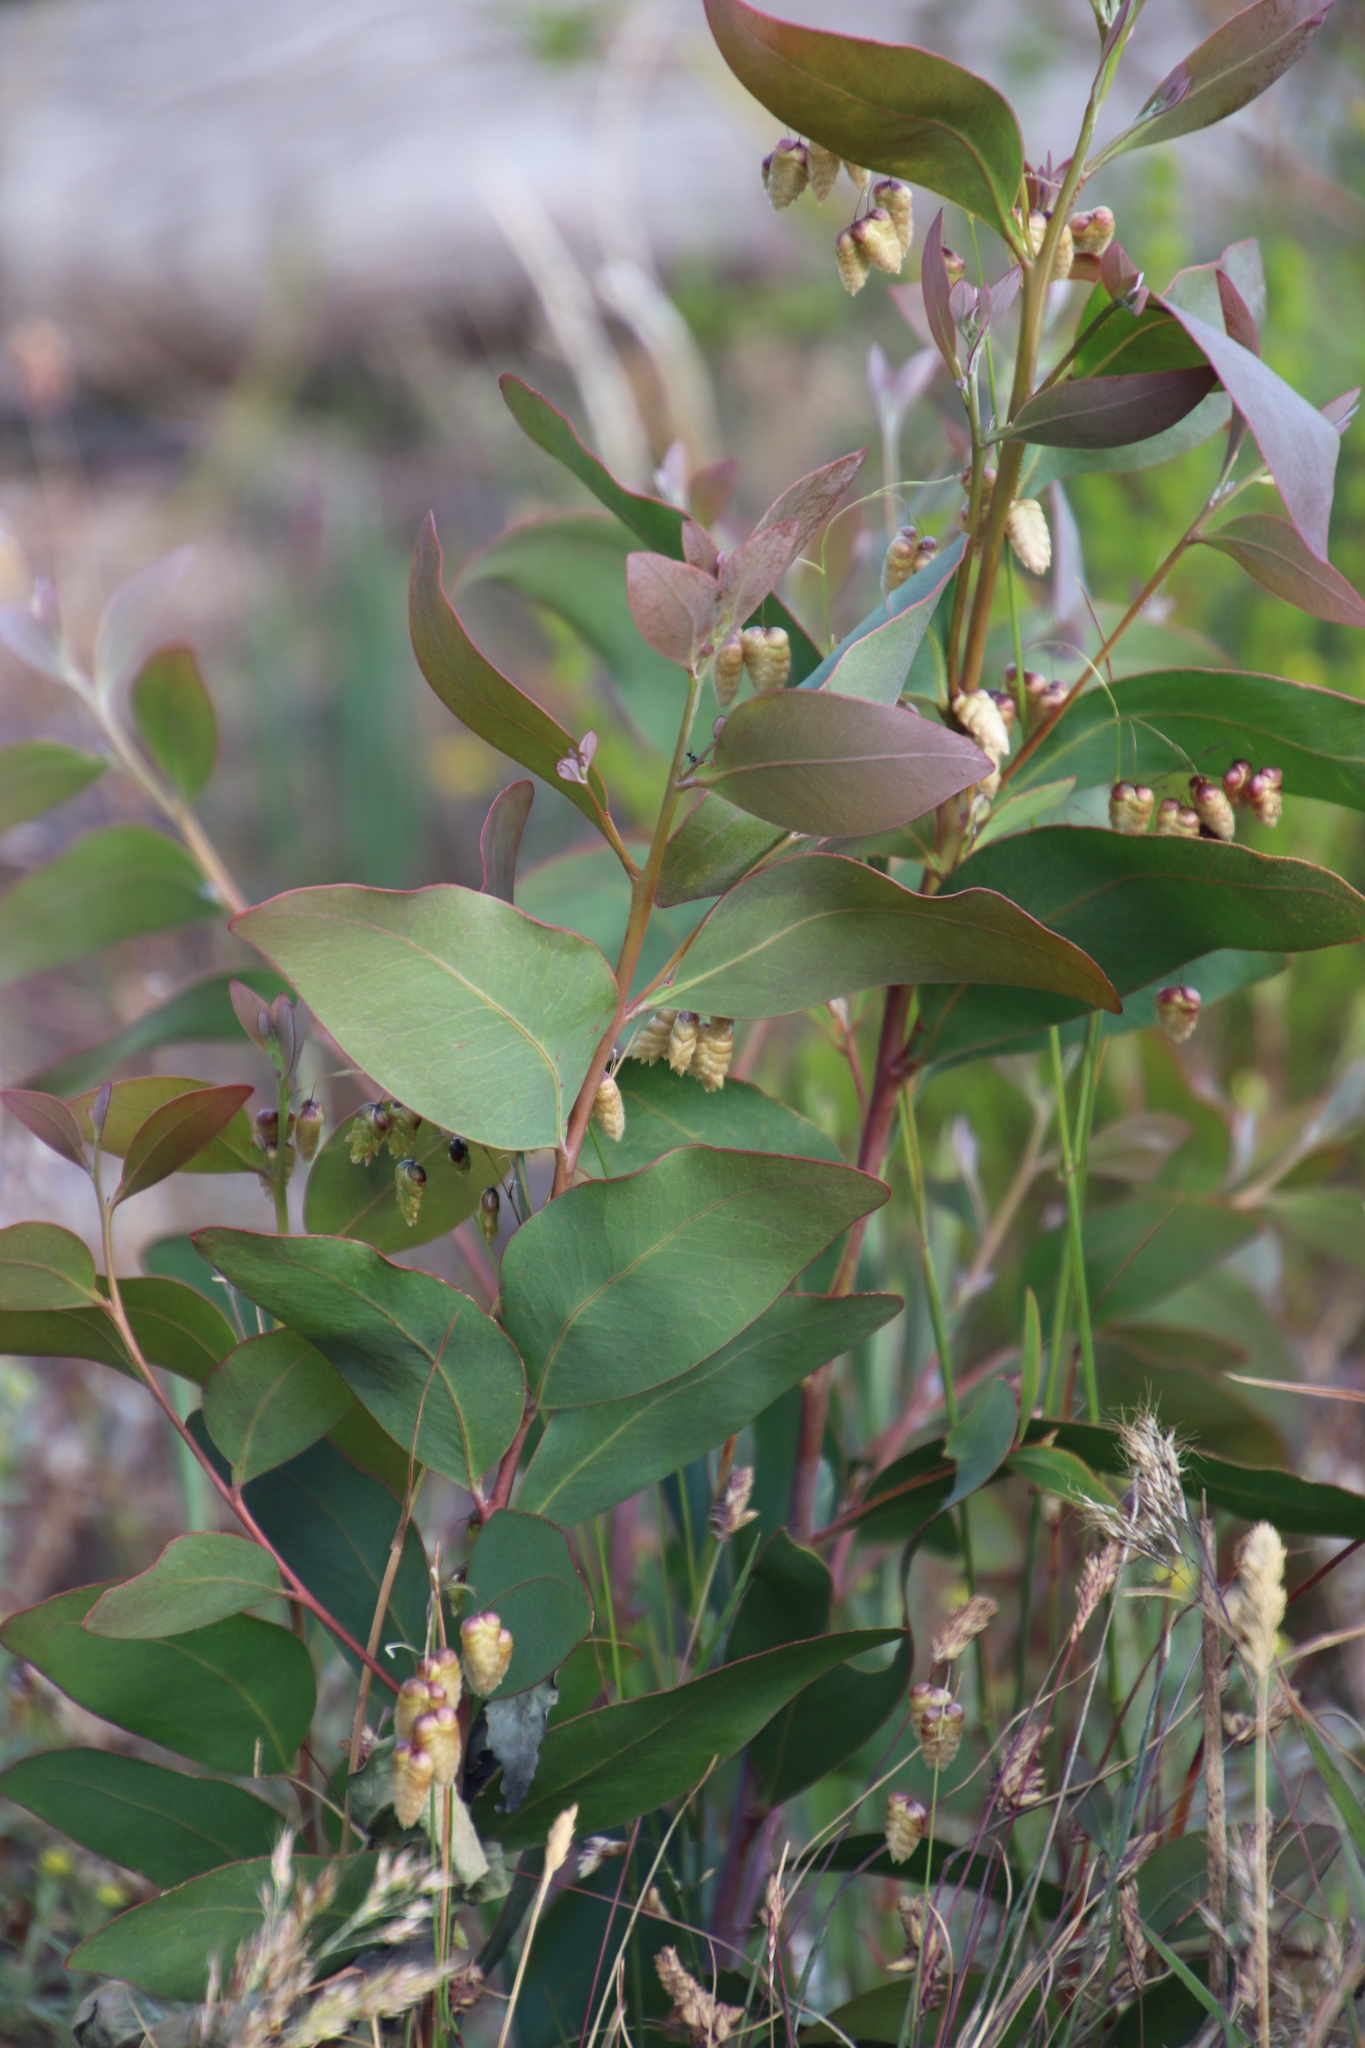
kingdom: Plantae
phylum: Tracheophyta
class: Magnoliopsida
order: Fabales
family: Fabaceae
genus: Acacia
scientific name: Acacia falciformis
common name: Tanning wattle
